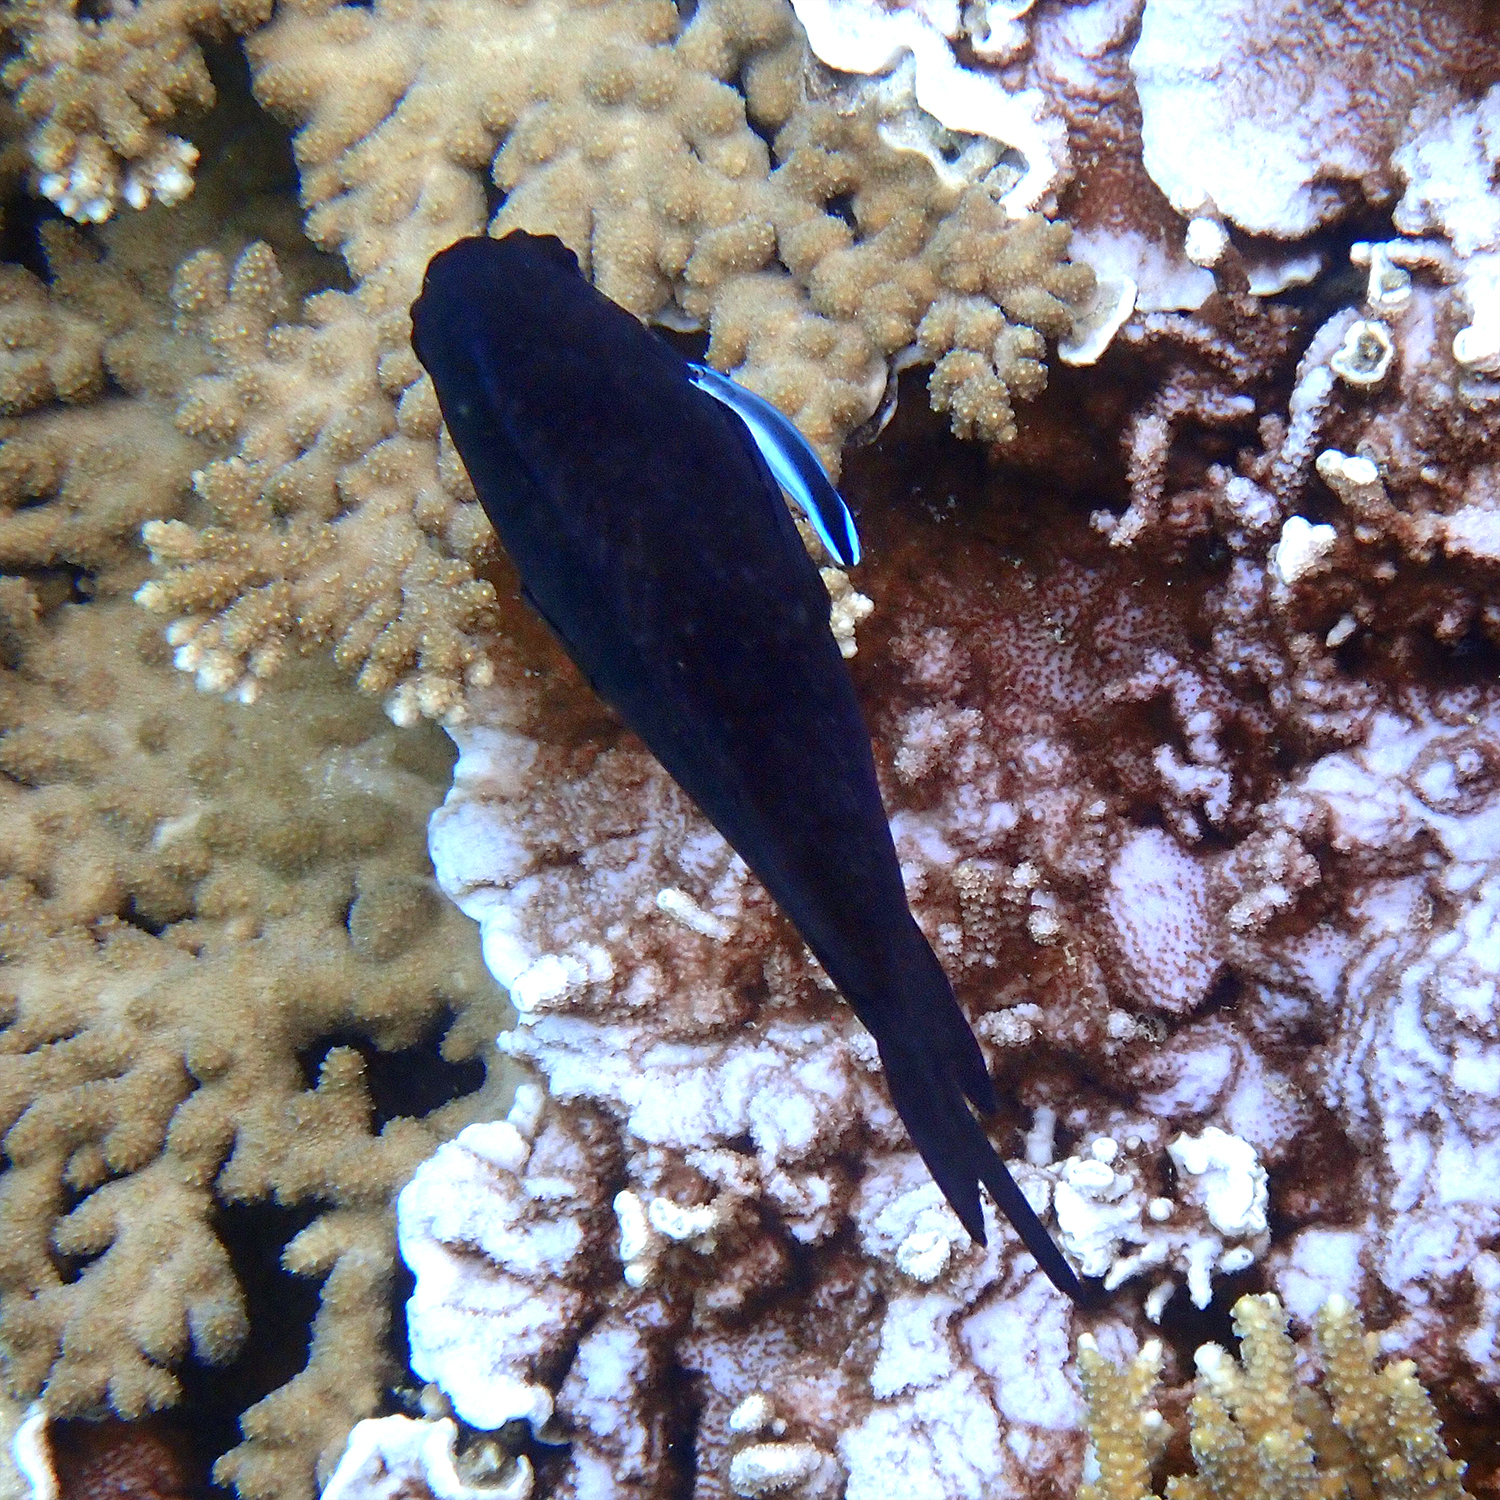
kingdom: Animalia
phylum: Chordata
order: Perciformes
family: Labridae
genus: Labroides
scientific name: Labroides dimidiatus
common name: Blue diesel wrasse
